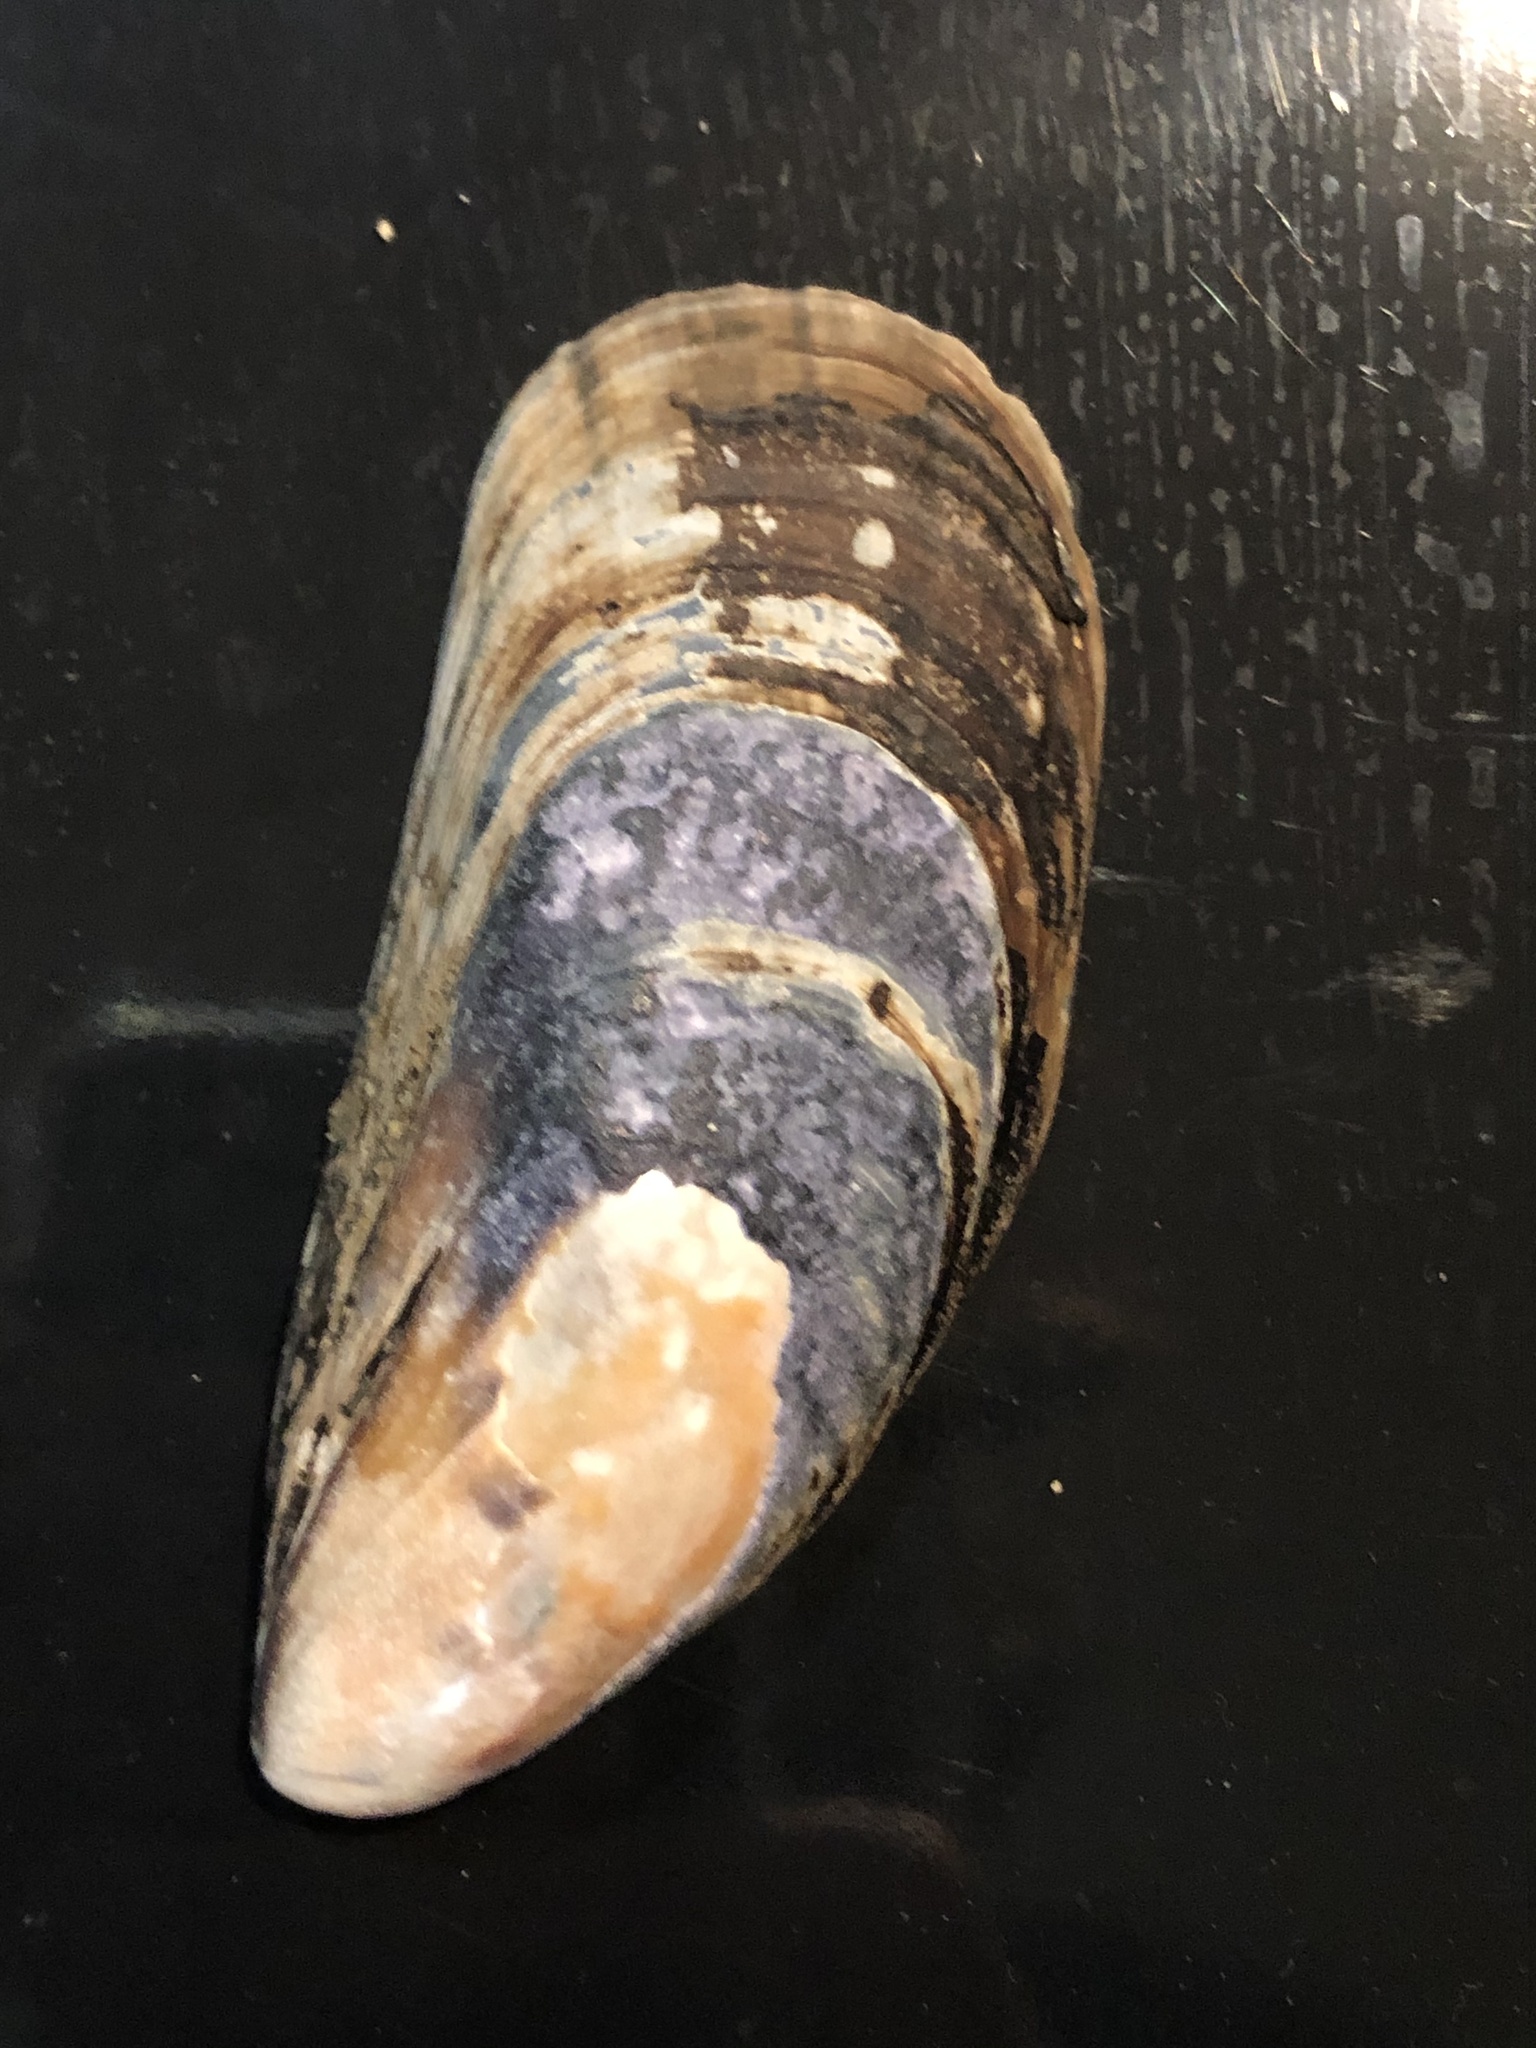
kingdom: Animalia
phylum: Mollusca
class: Bivalvia
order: Mytilida
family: Mytilidae
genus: Mytilus
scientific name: Mytilus californianus
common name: California mussel
